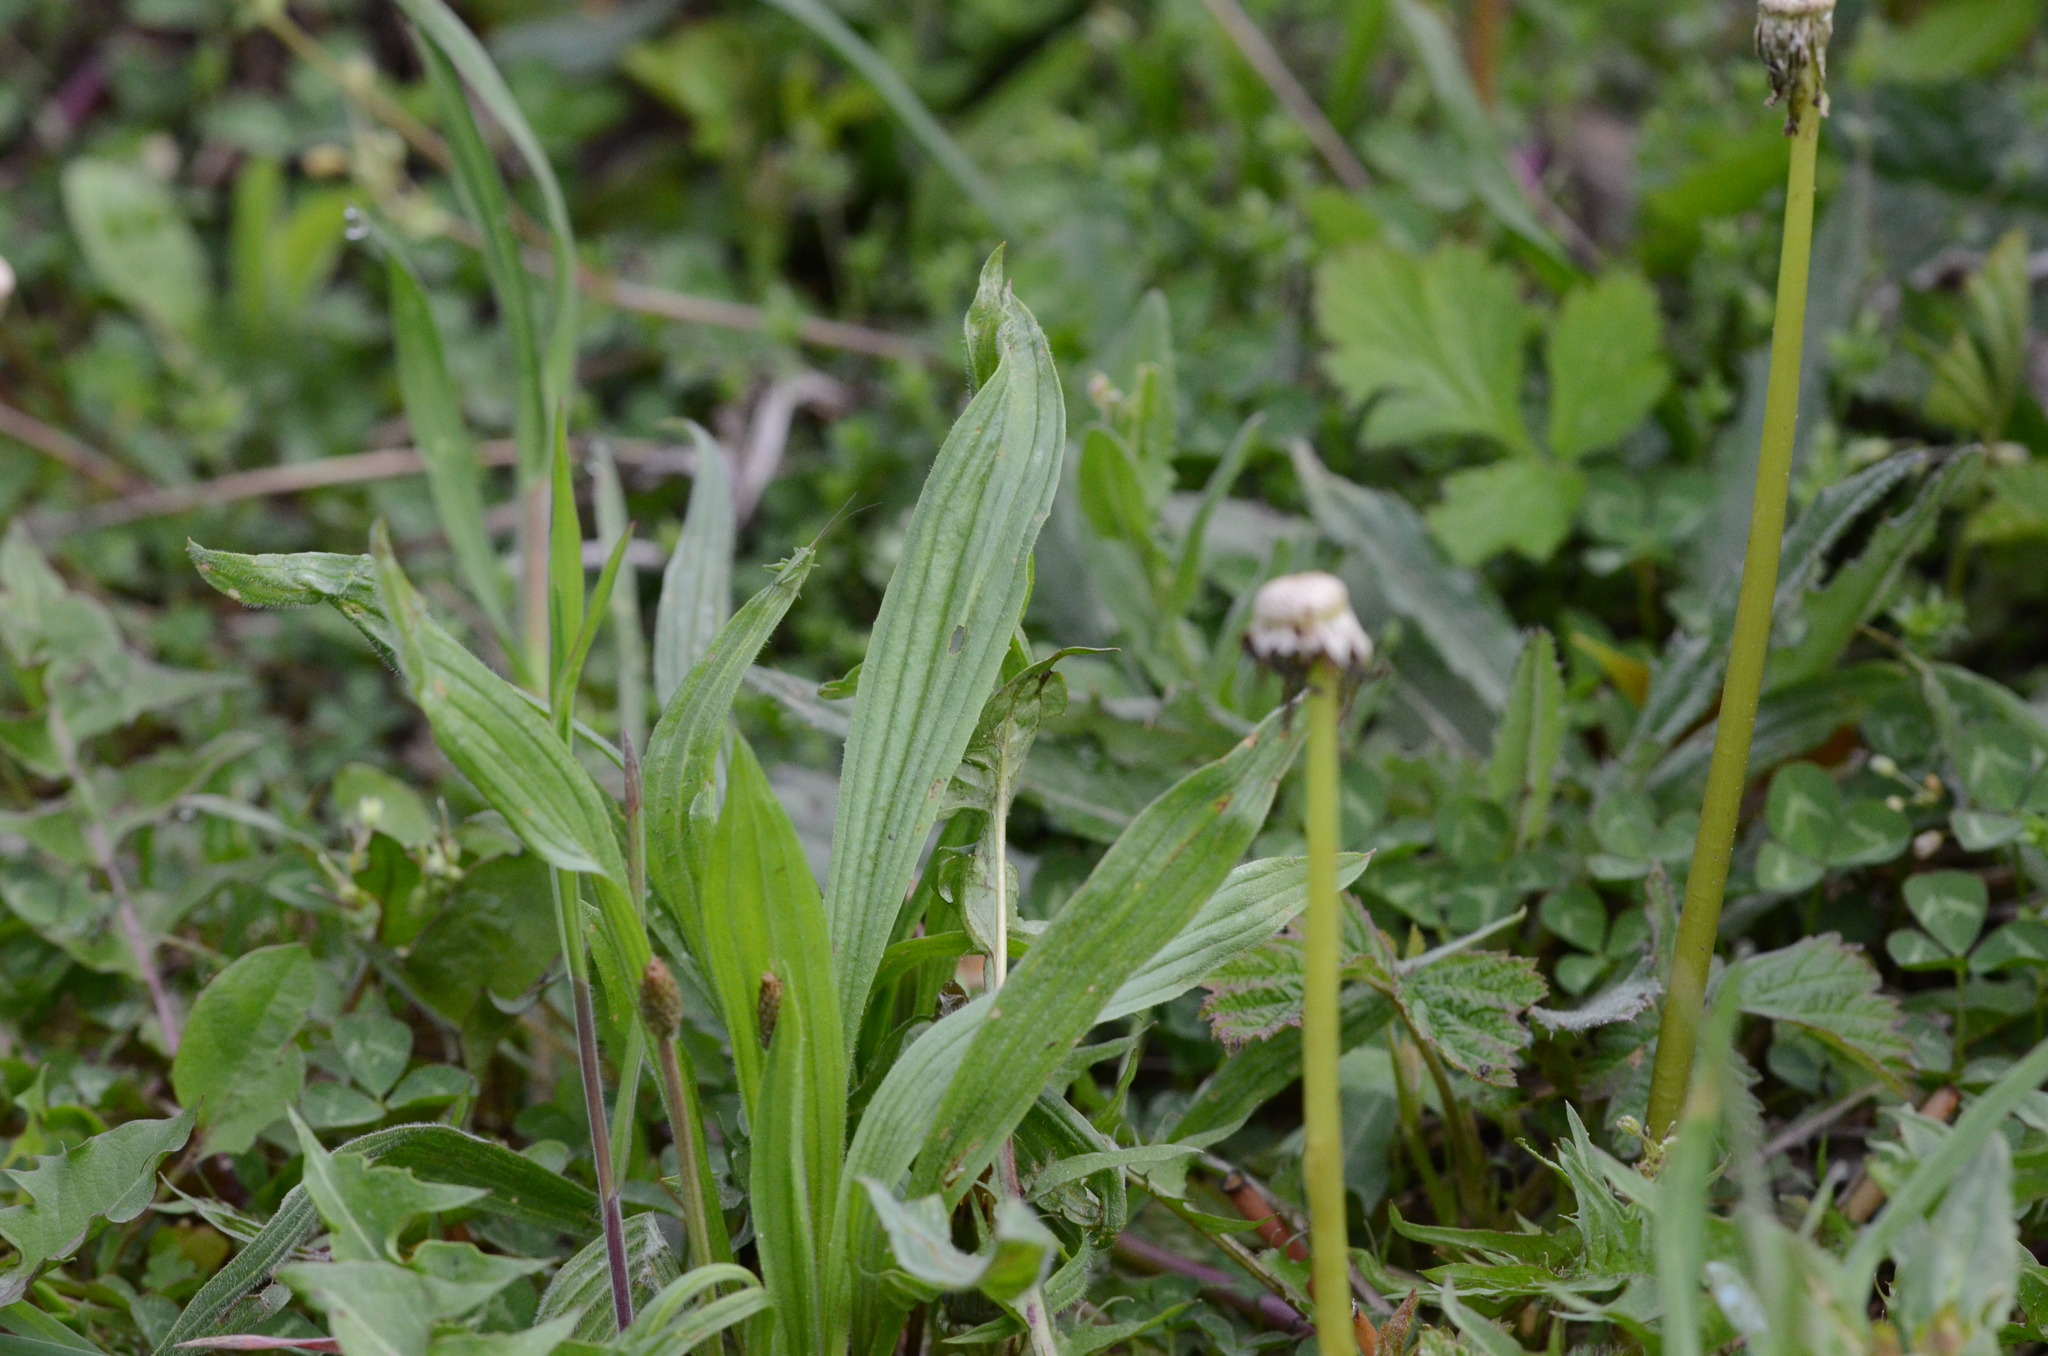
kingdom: Plantae
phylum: Tracheophyta
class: Magnoliopsida
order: Lamiales
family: Plantaginaceae
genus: Plantago
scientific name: Plantago lanceolata
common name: Ribwort plantain
